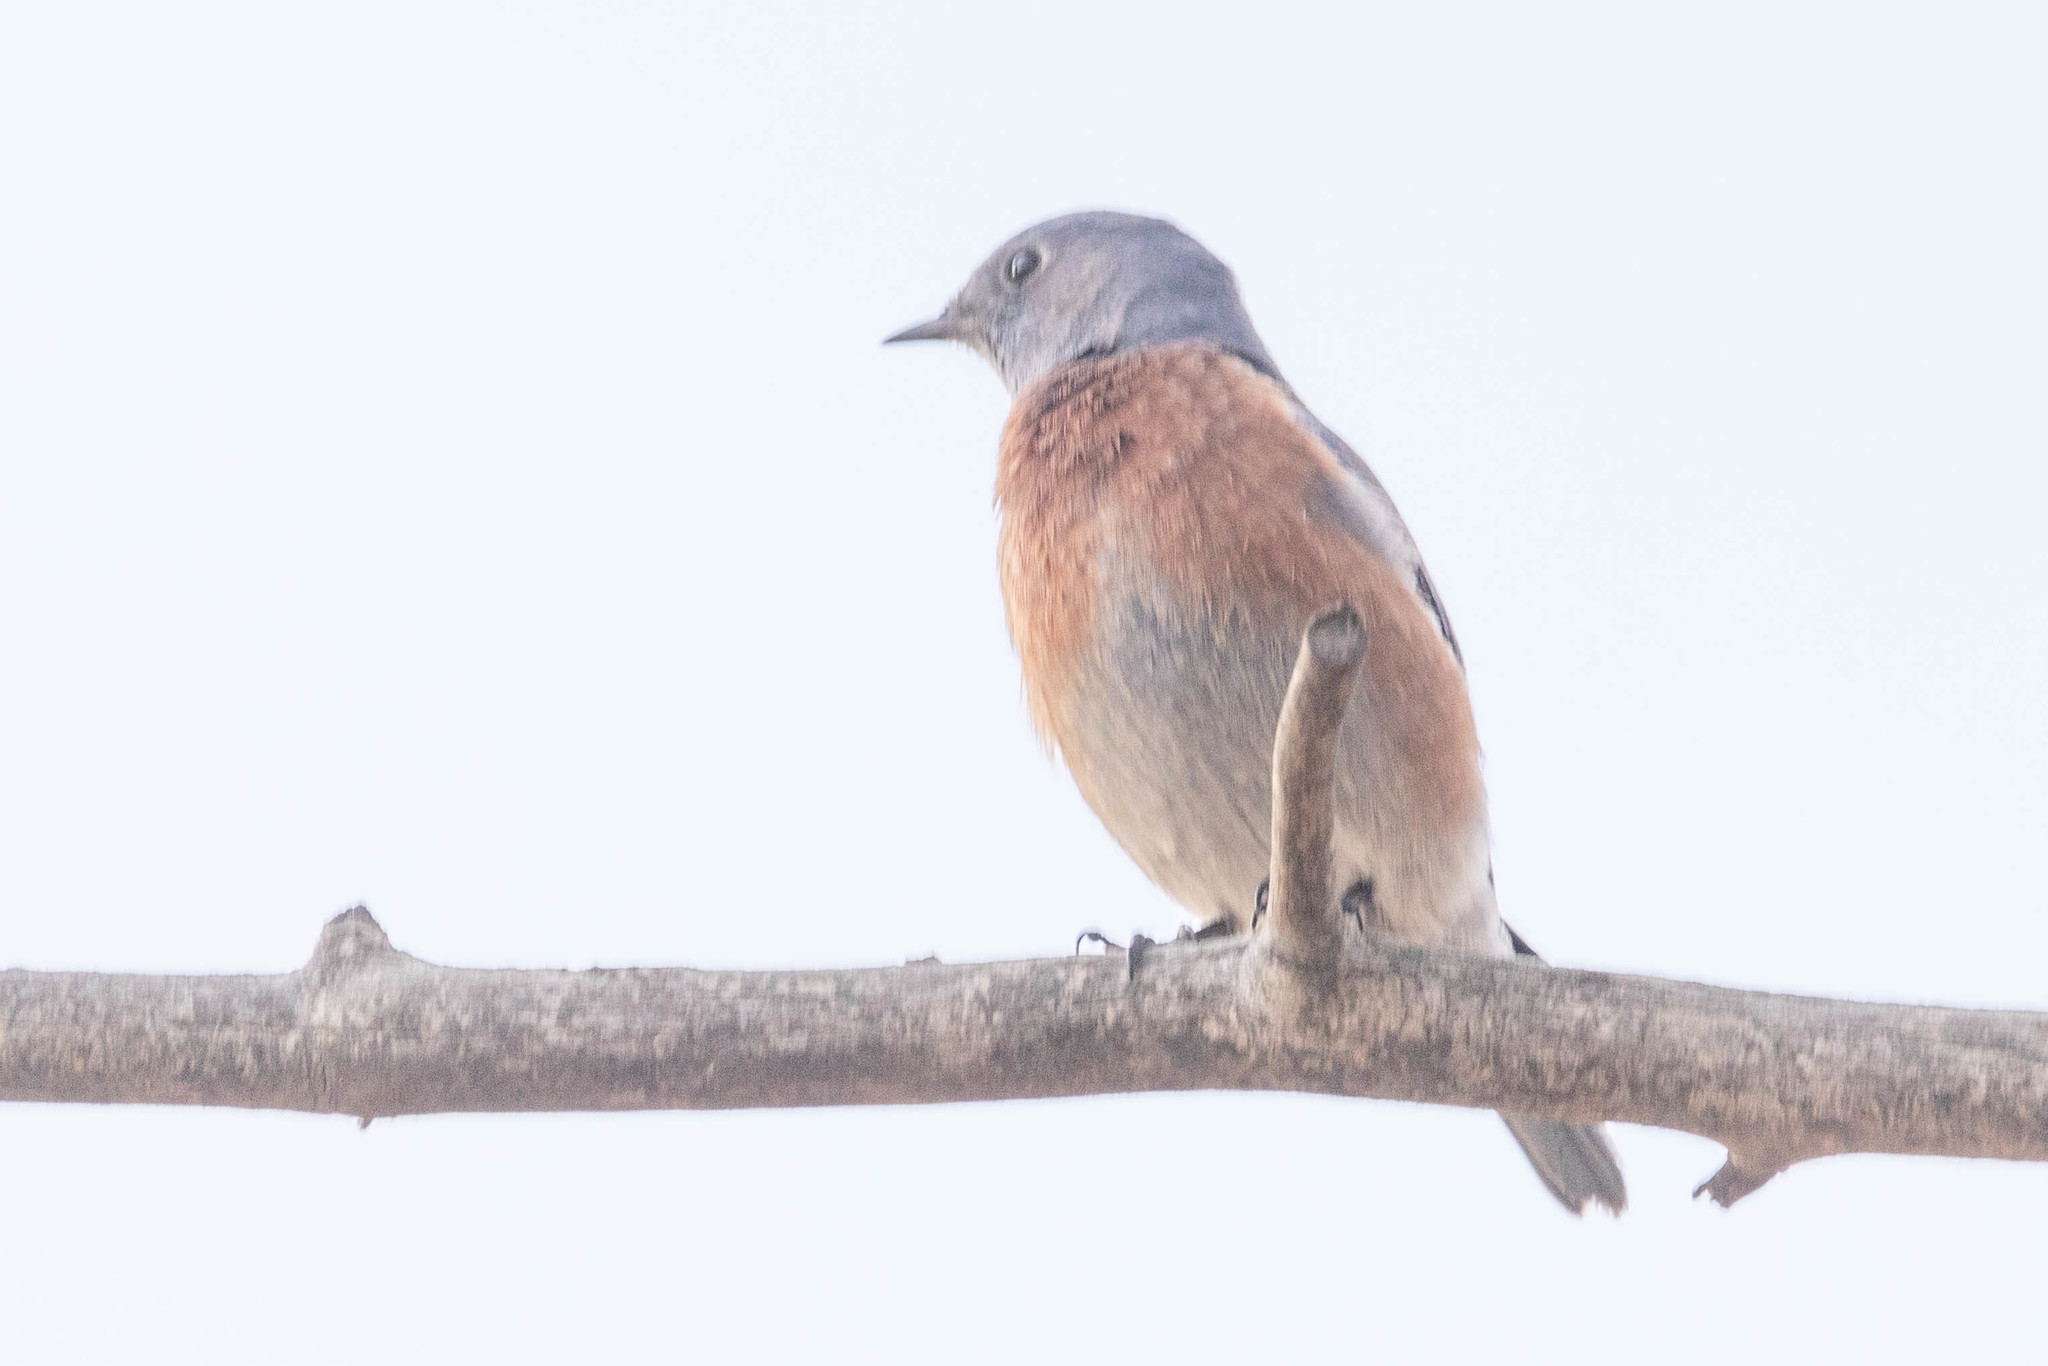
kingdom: Animalia
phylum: Chordata
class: Aves
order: Passeriformes
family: Turdidae
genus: Sialia
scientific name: Sialia mexicana
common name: Western bluebird
